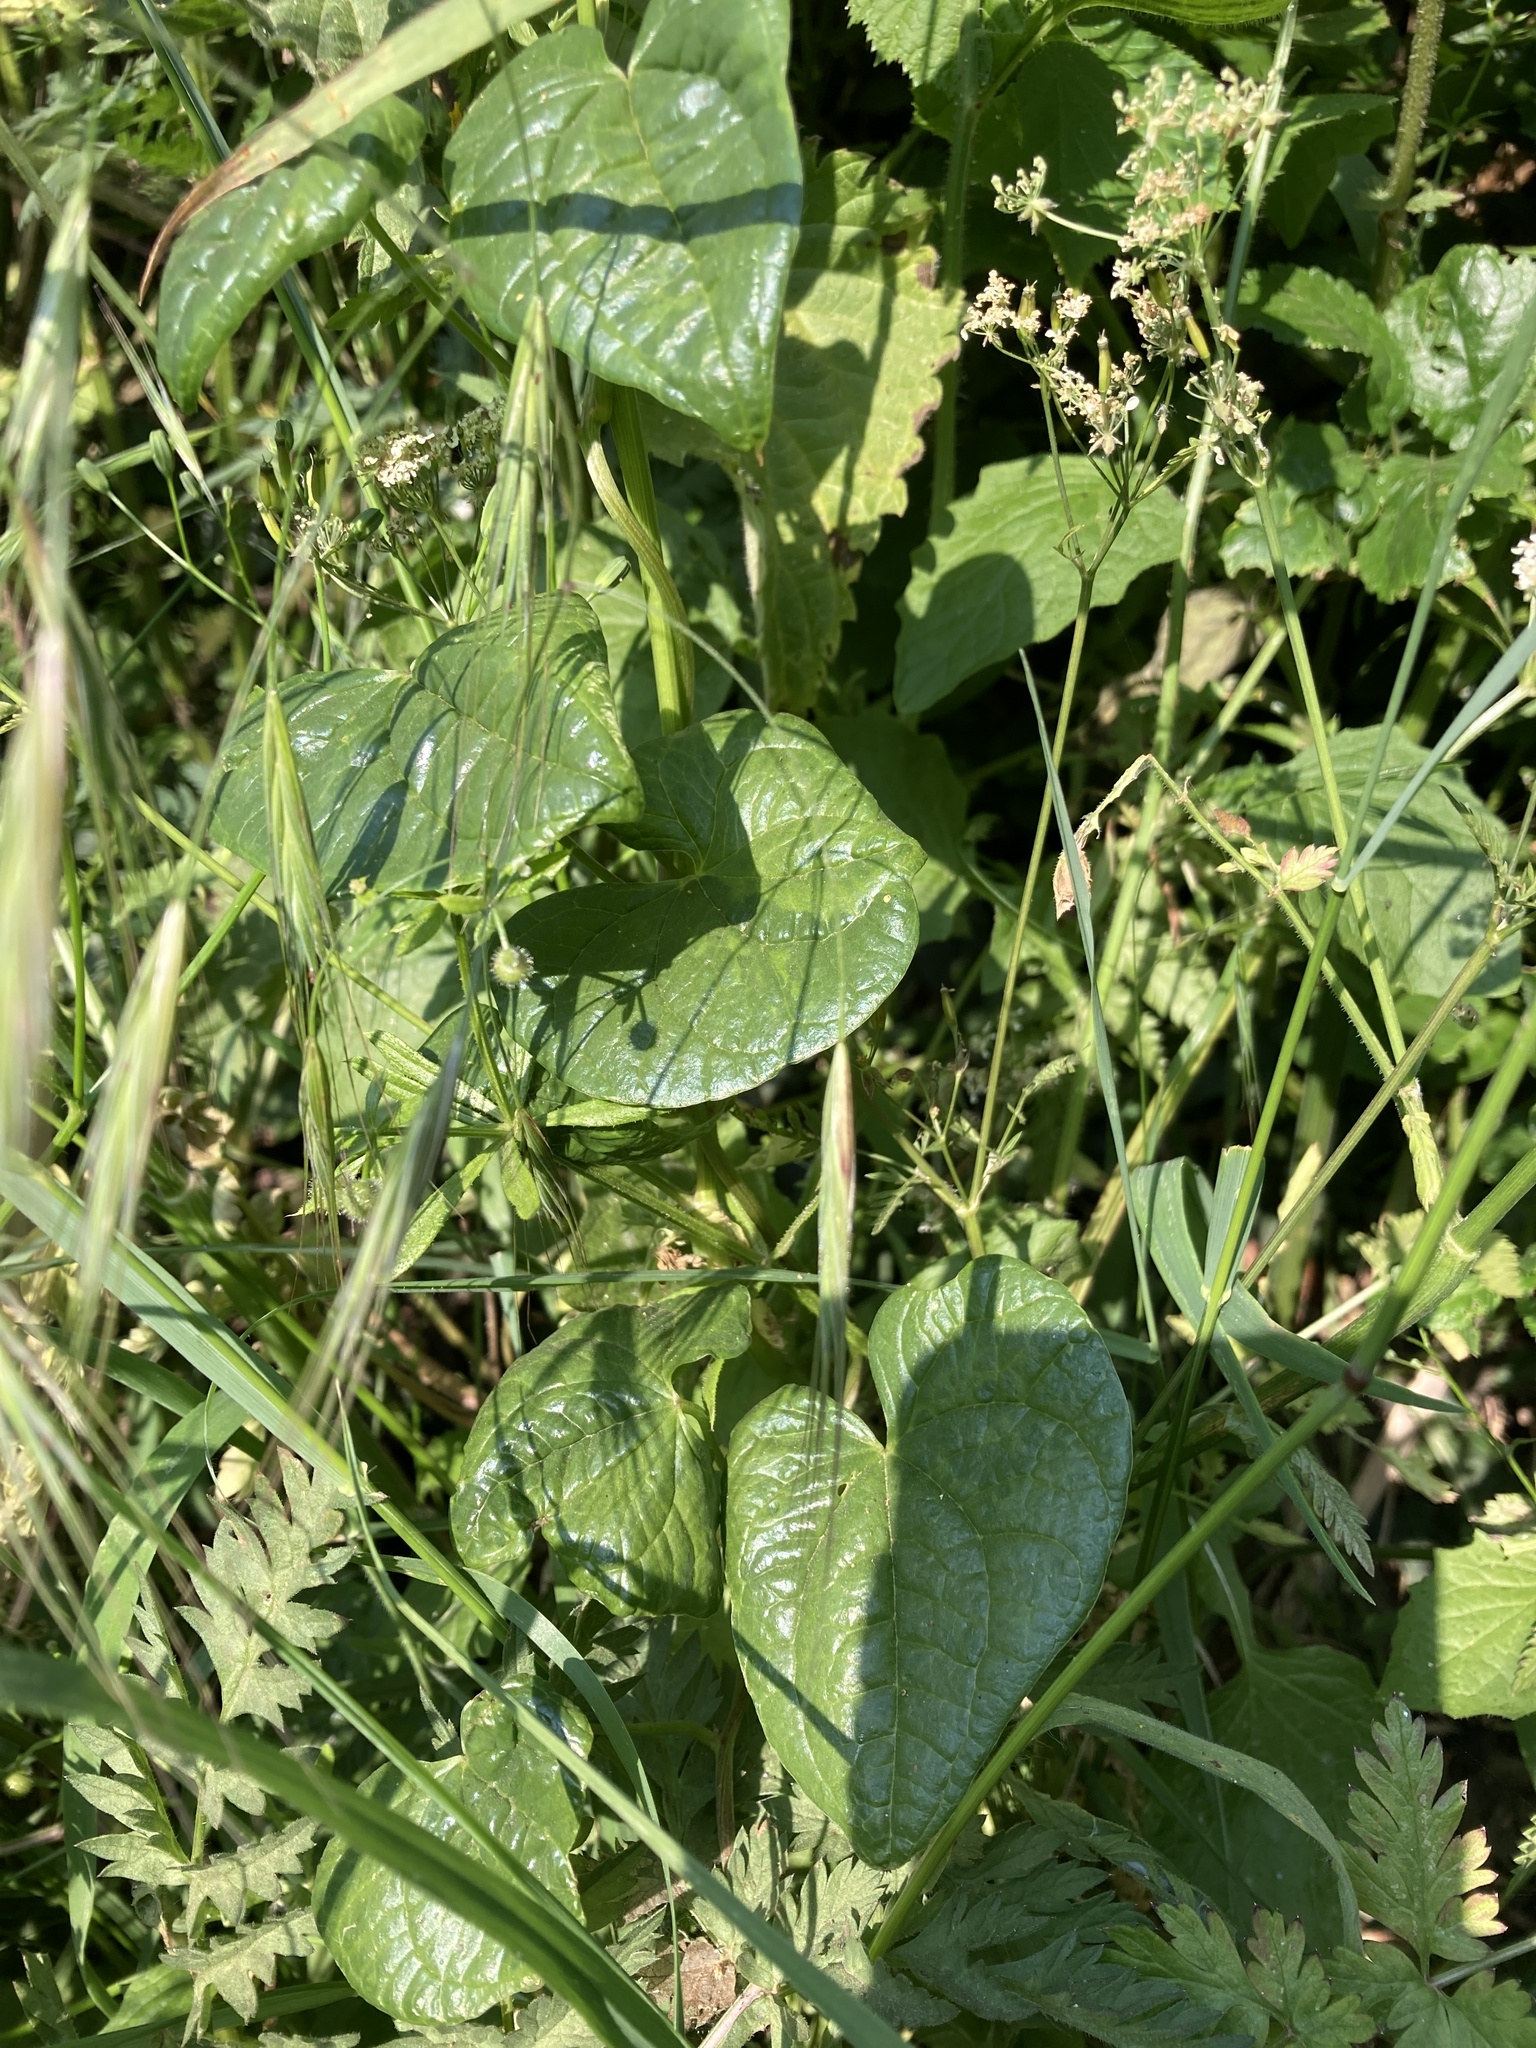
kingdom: Plantae
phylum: Tracheophyta
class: Liliopsida
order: Dioscoreales
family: Dioscoreaceae
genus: Dioscorea
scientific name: Dioscorea communis
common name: Black-bindweed
